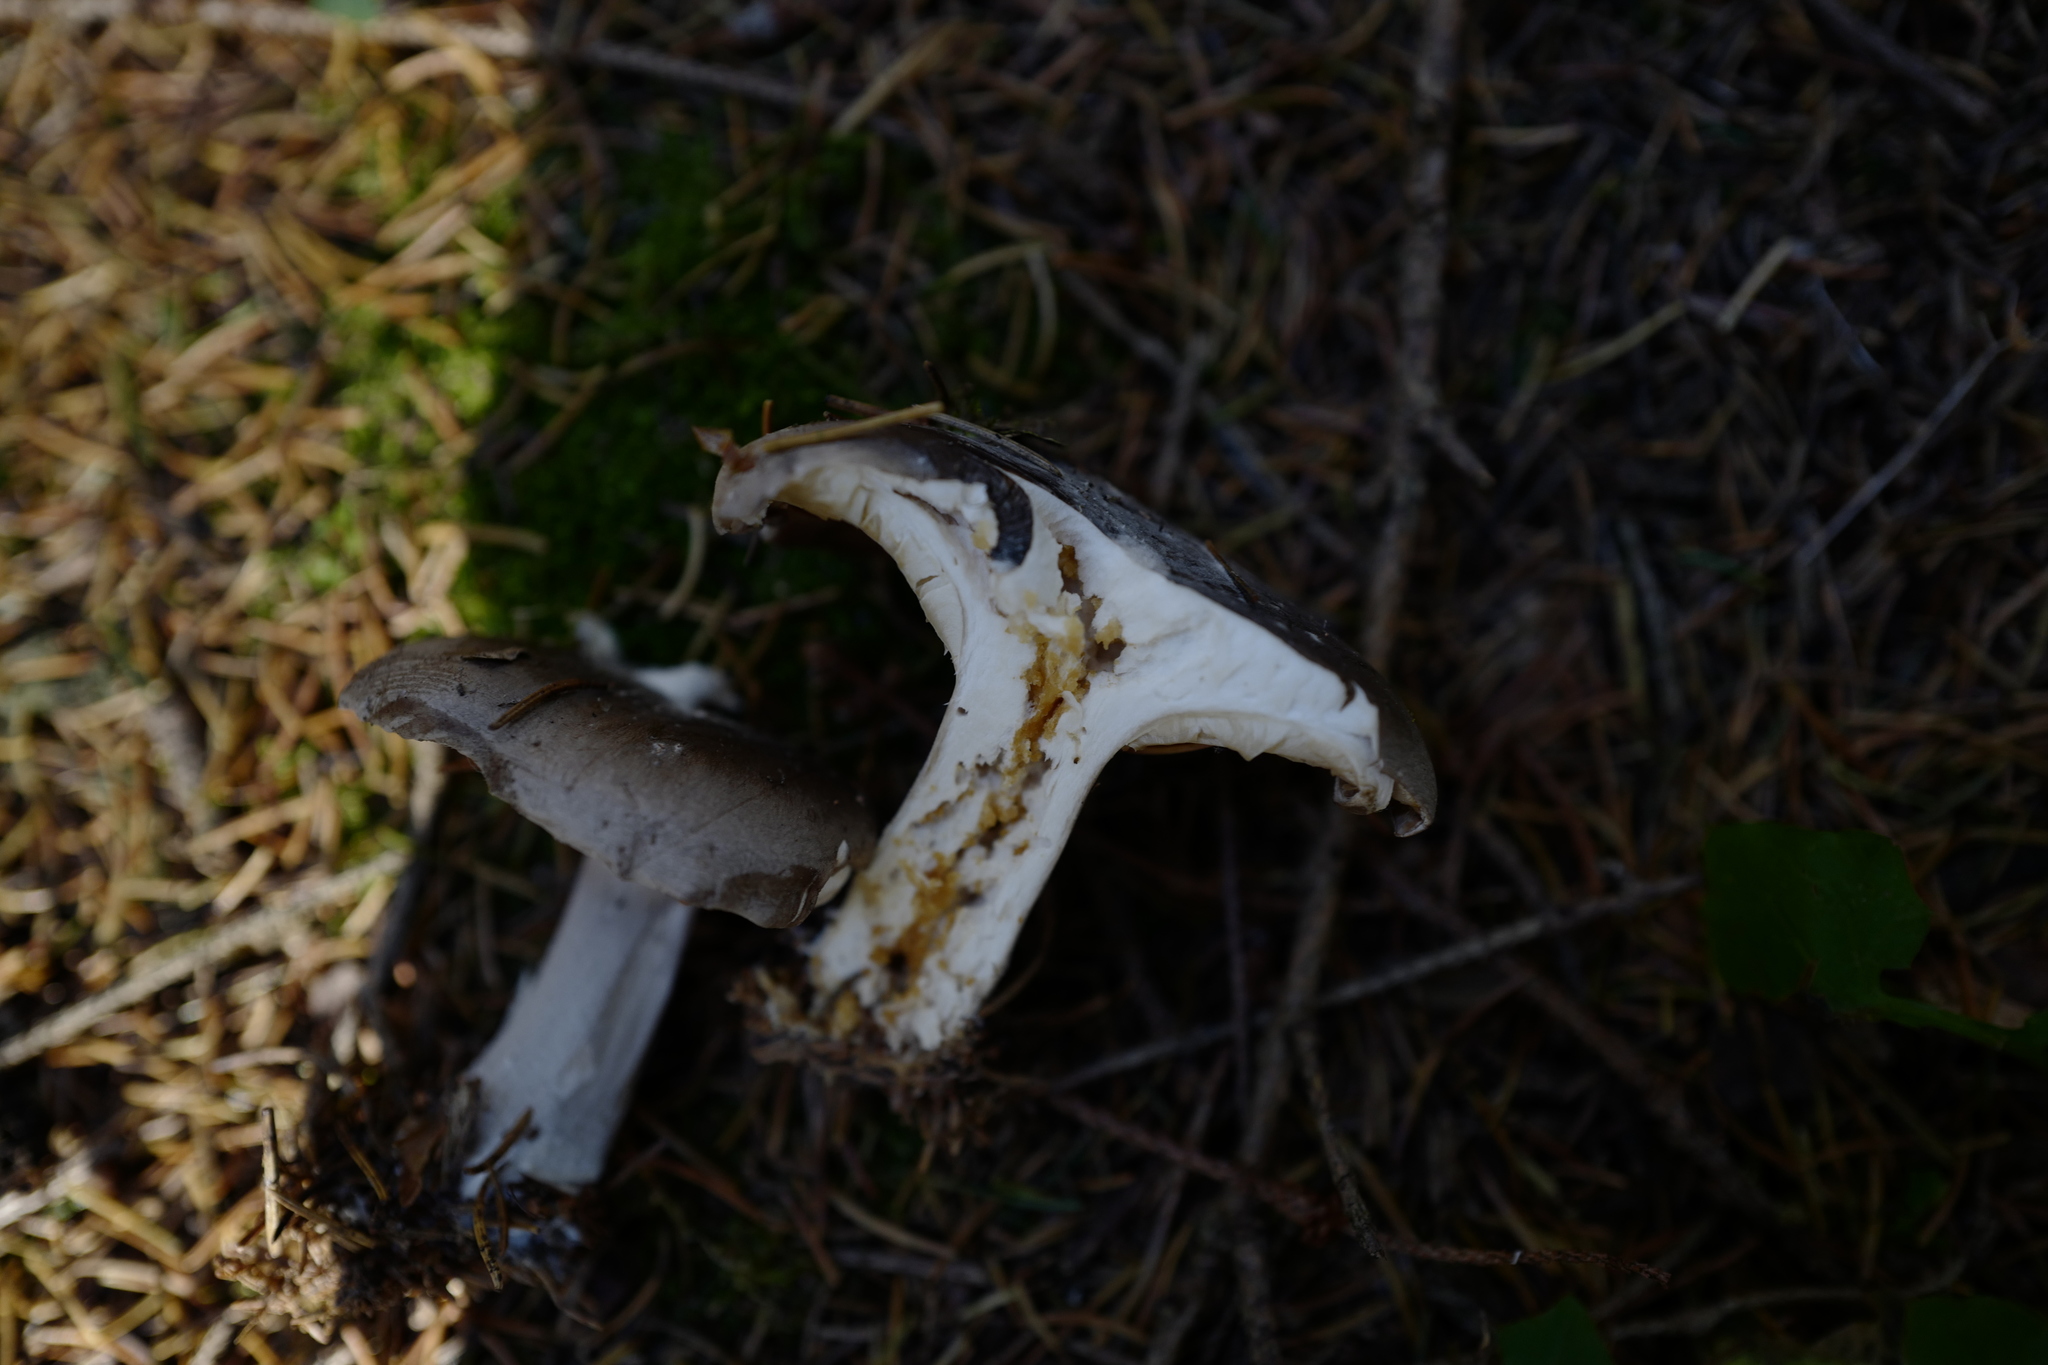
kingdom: Fungi
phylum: Basidiomycota
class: Agaricomycetes
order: Agaricales
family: Tricholomataceae
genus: Clitocybe
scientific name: Clitocybe nebularis
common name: Clouded agaric
